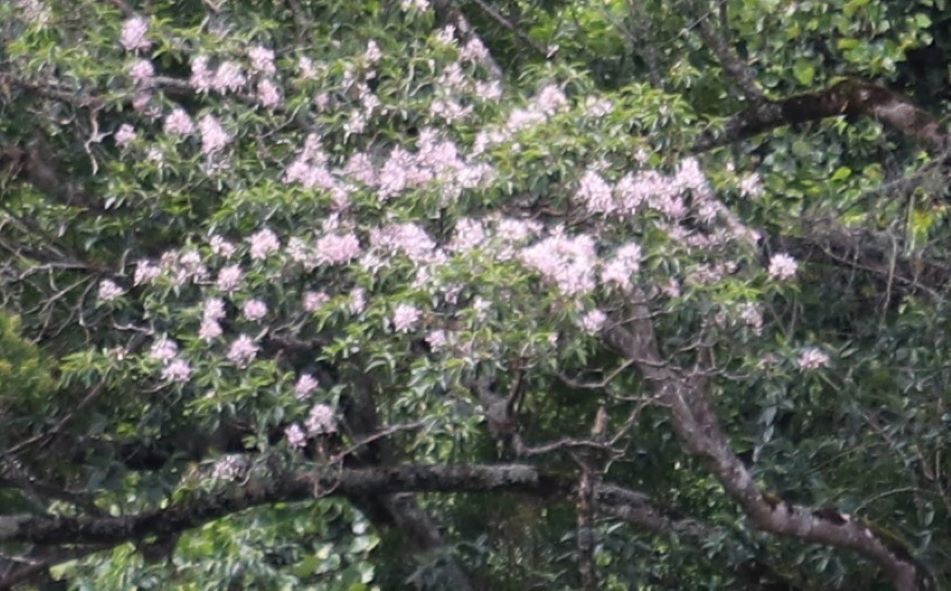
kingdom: Plantae
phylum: Tracheophyta
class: Magnoliopsida
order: Sapindales
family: Rutaceae
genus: Calodendrum
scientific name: Calodendrum capense
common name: Cape chestnut
